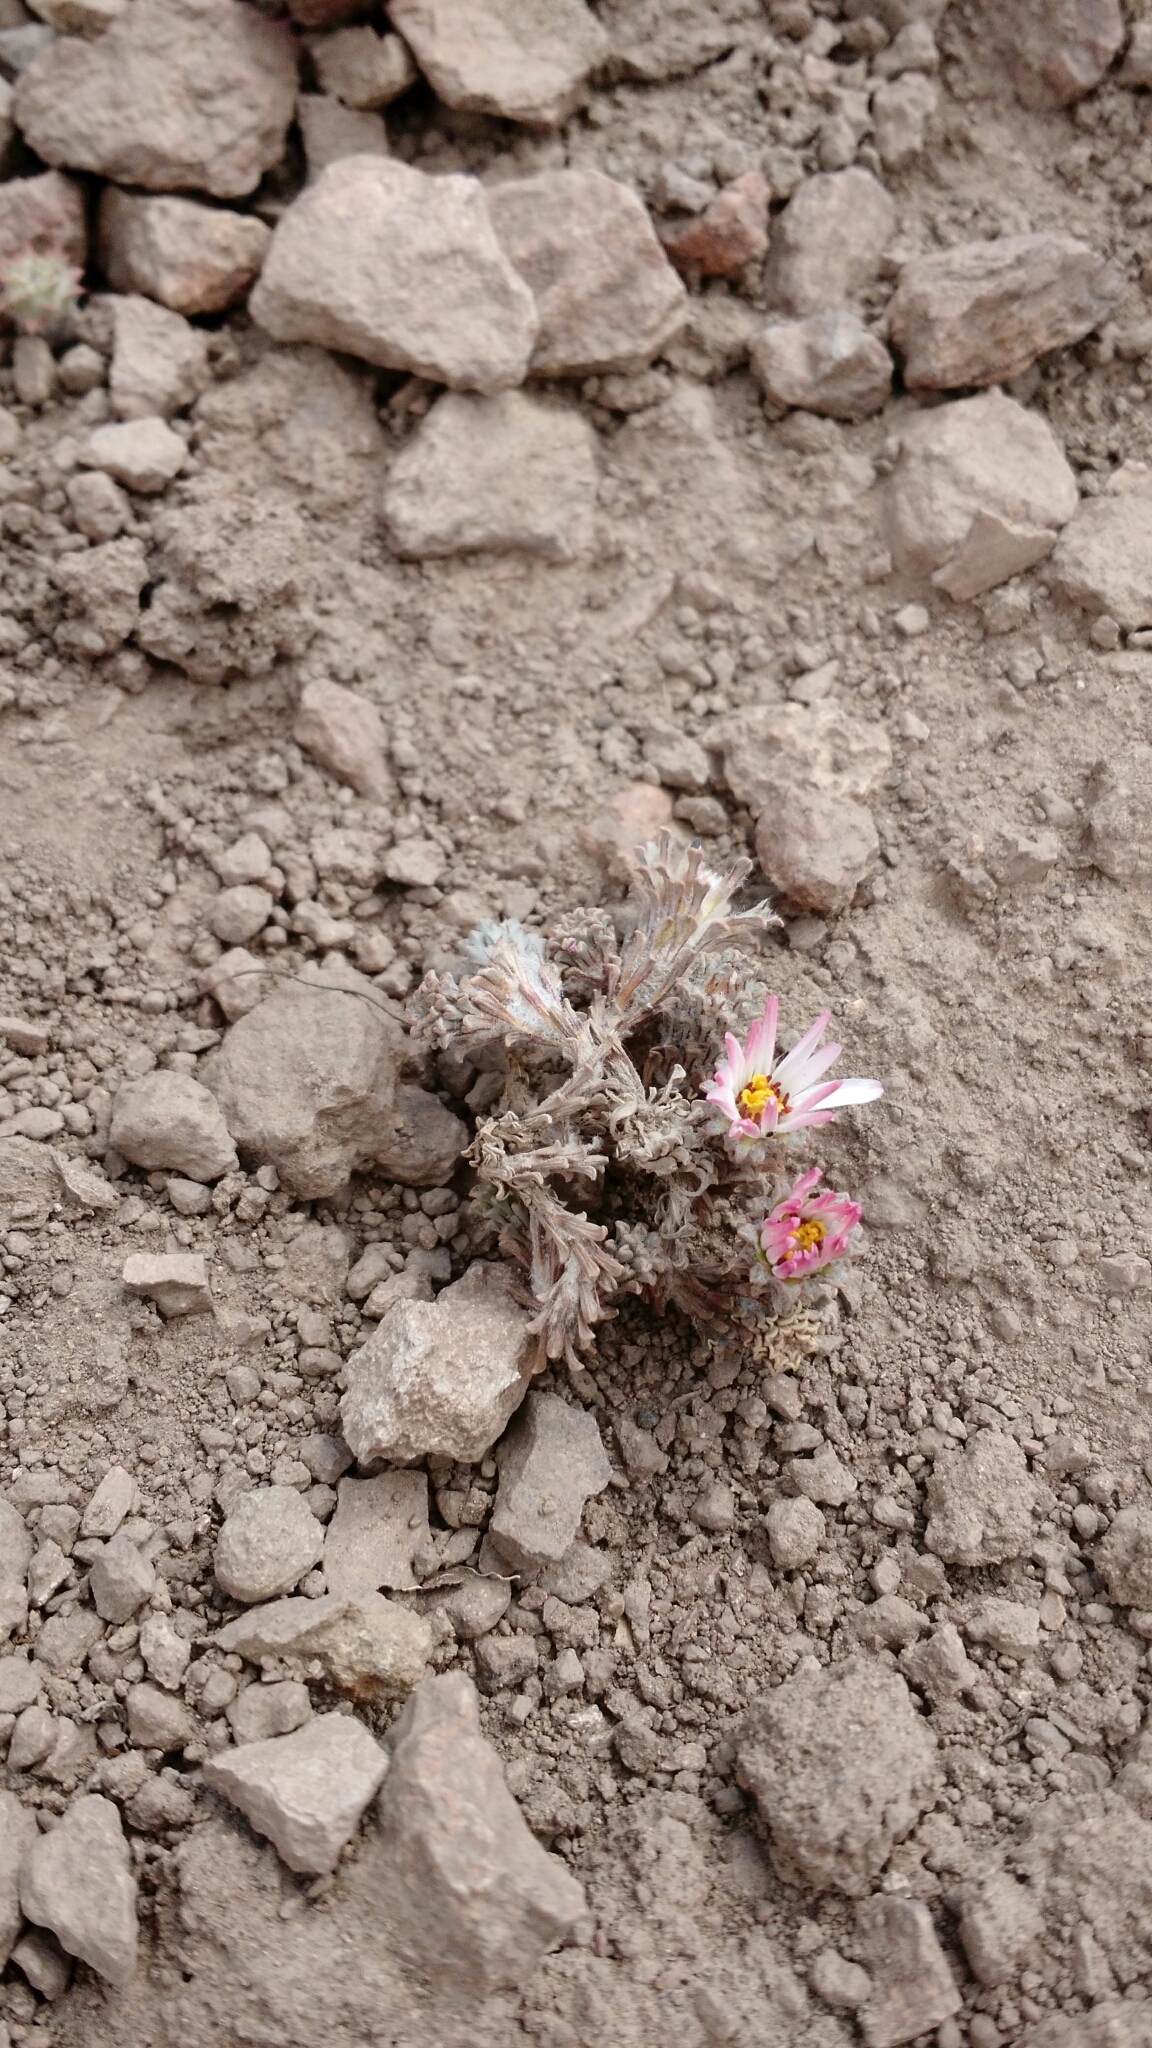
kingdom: Plantae
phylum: Tracheophyta
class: Magnoliopsida
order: Asterales
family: Asteraceae
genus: Oriastrum
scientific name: Oriastrum lycopodioides
